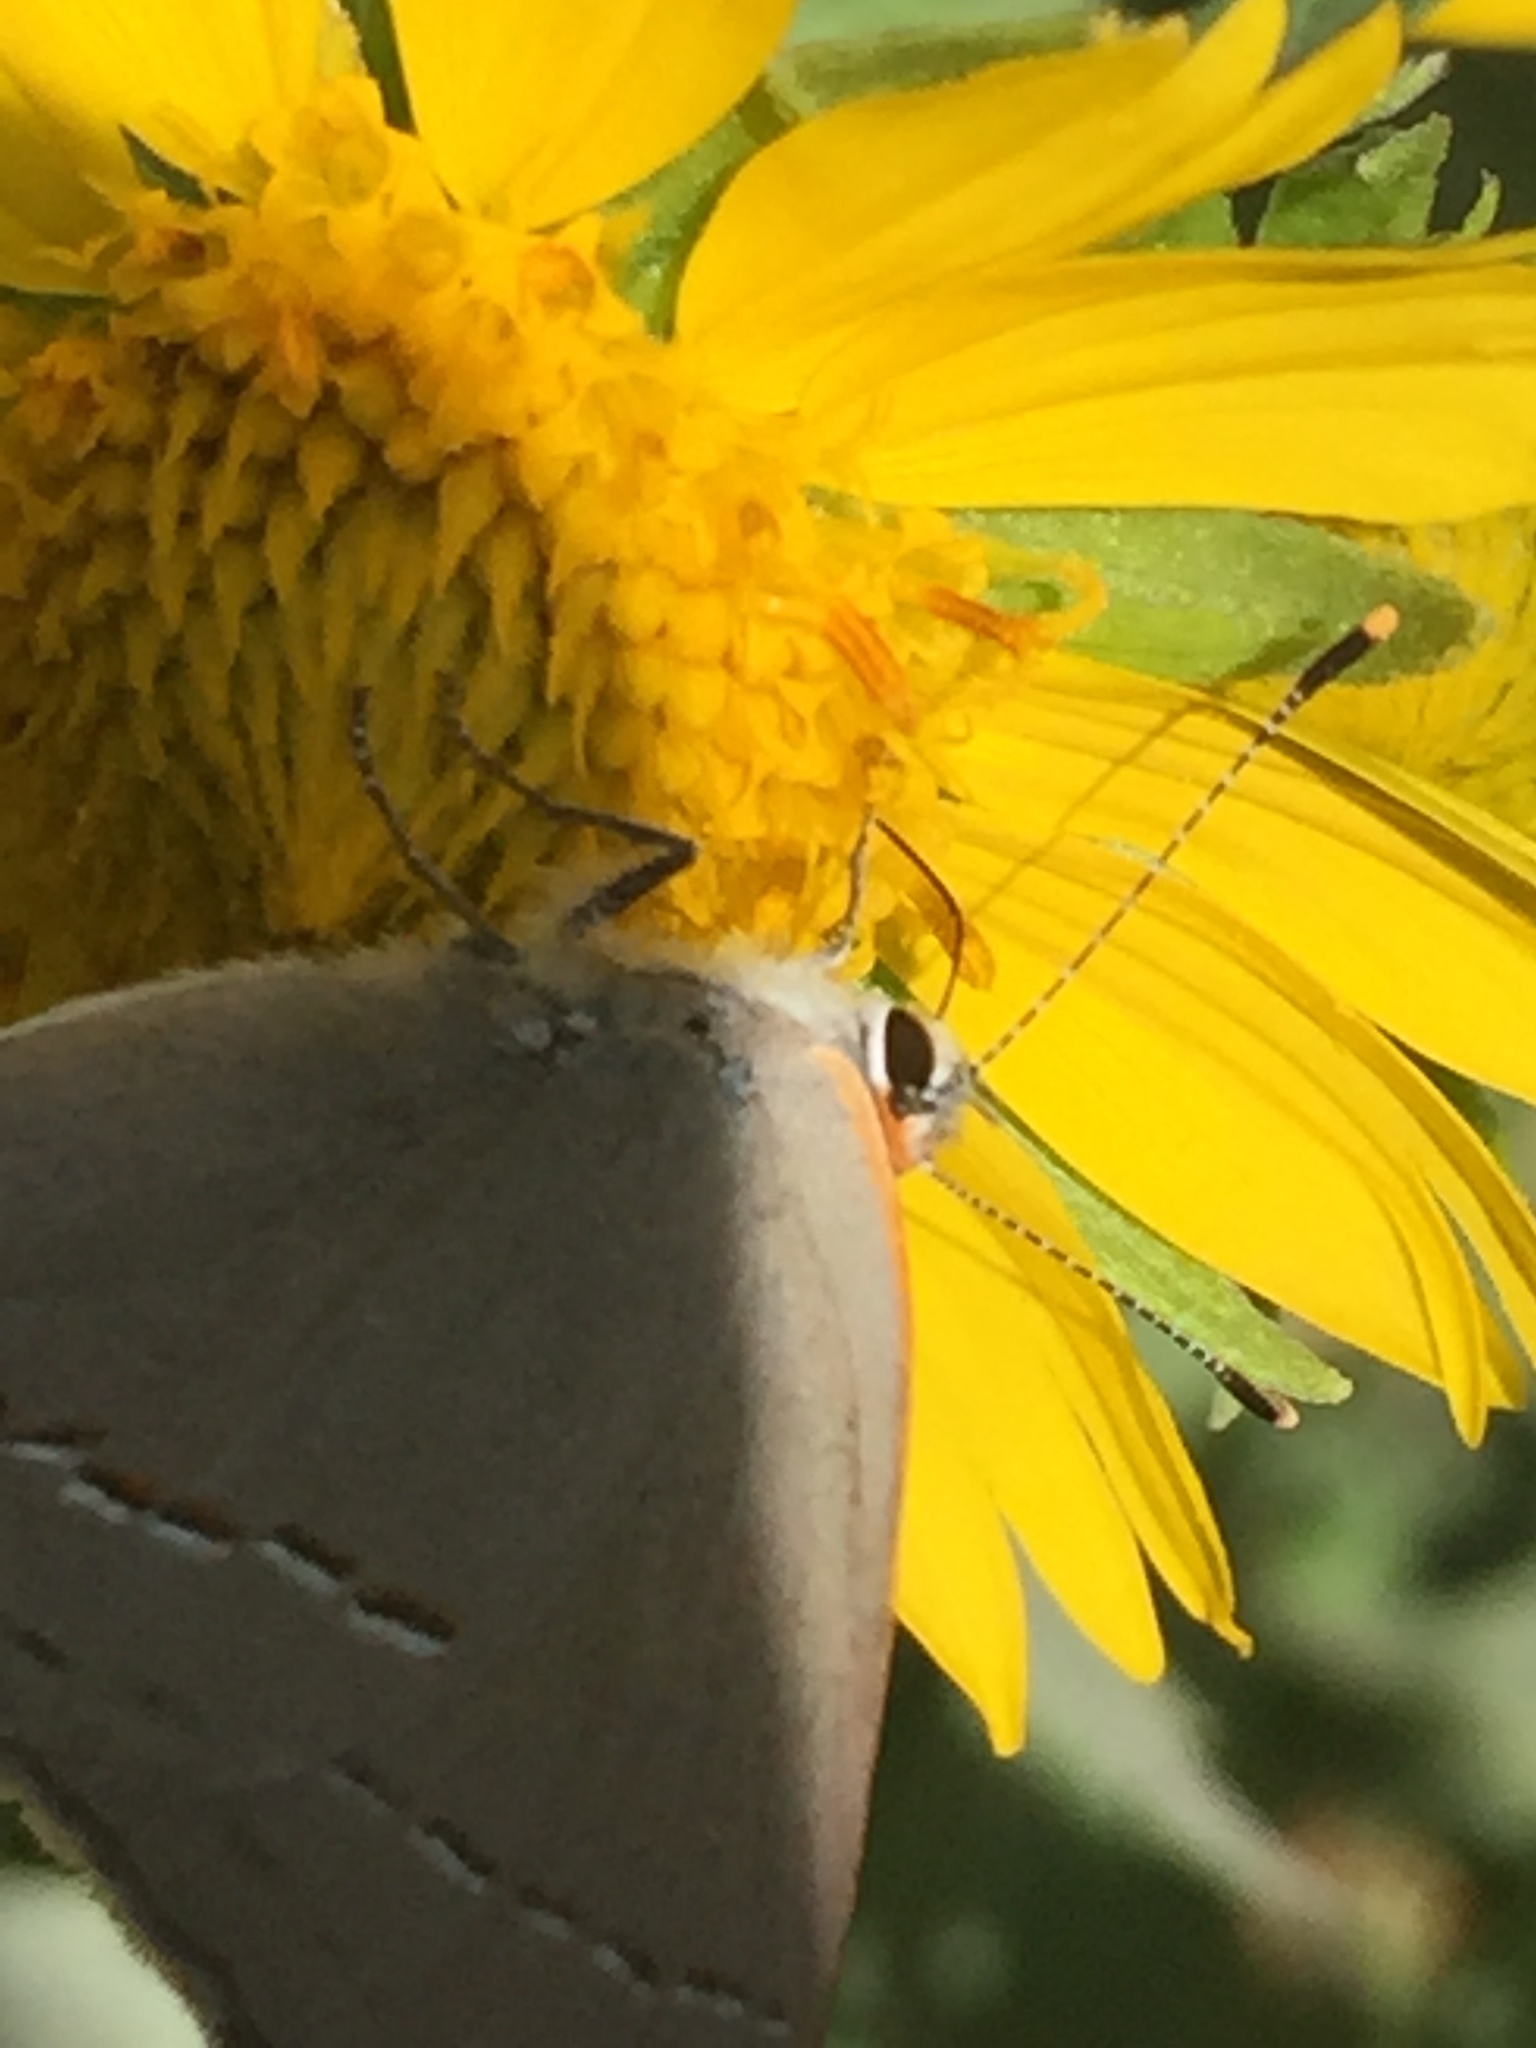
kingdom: Animalia
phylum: Arthropoda
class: Insecta
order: Lepidoptera
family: Lycaenidae
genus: Strymon
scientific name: Strymon melinus
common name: Gray hairstreak
